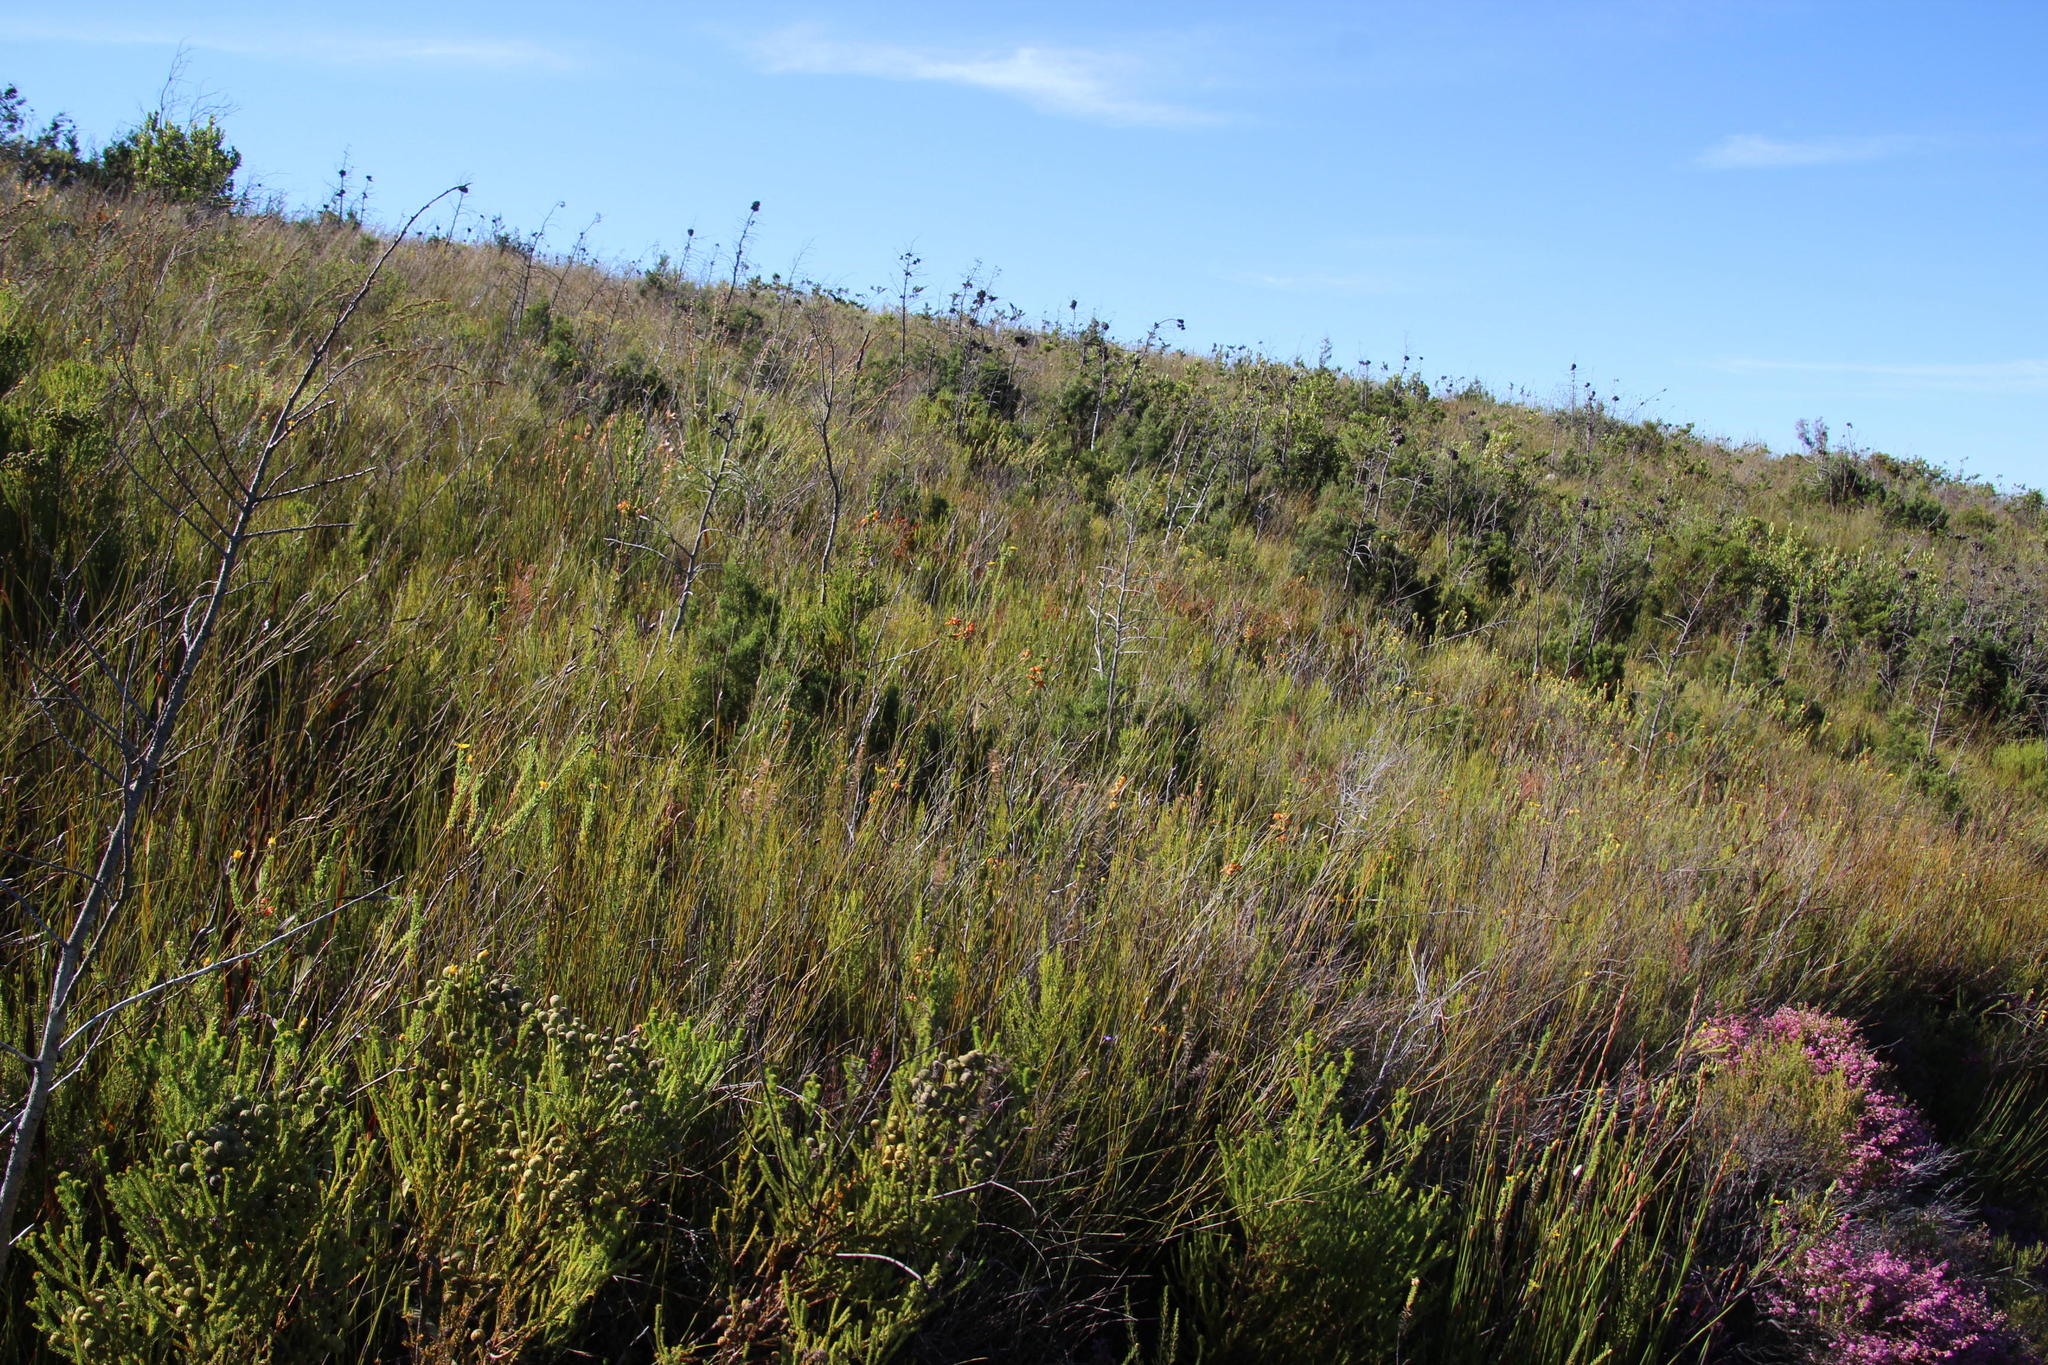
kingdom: Plantae
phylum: Tracheophyta
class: Magnoliopsida
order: Ericales
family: Ericaceae
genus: Erica
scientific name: Erica blenna
